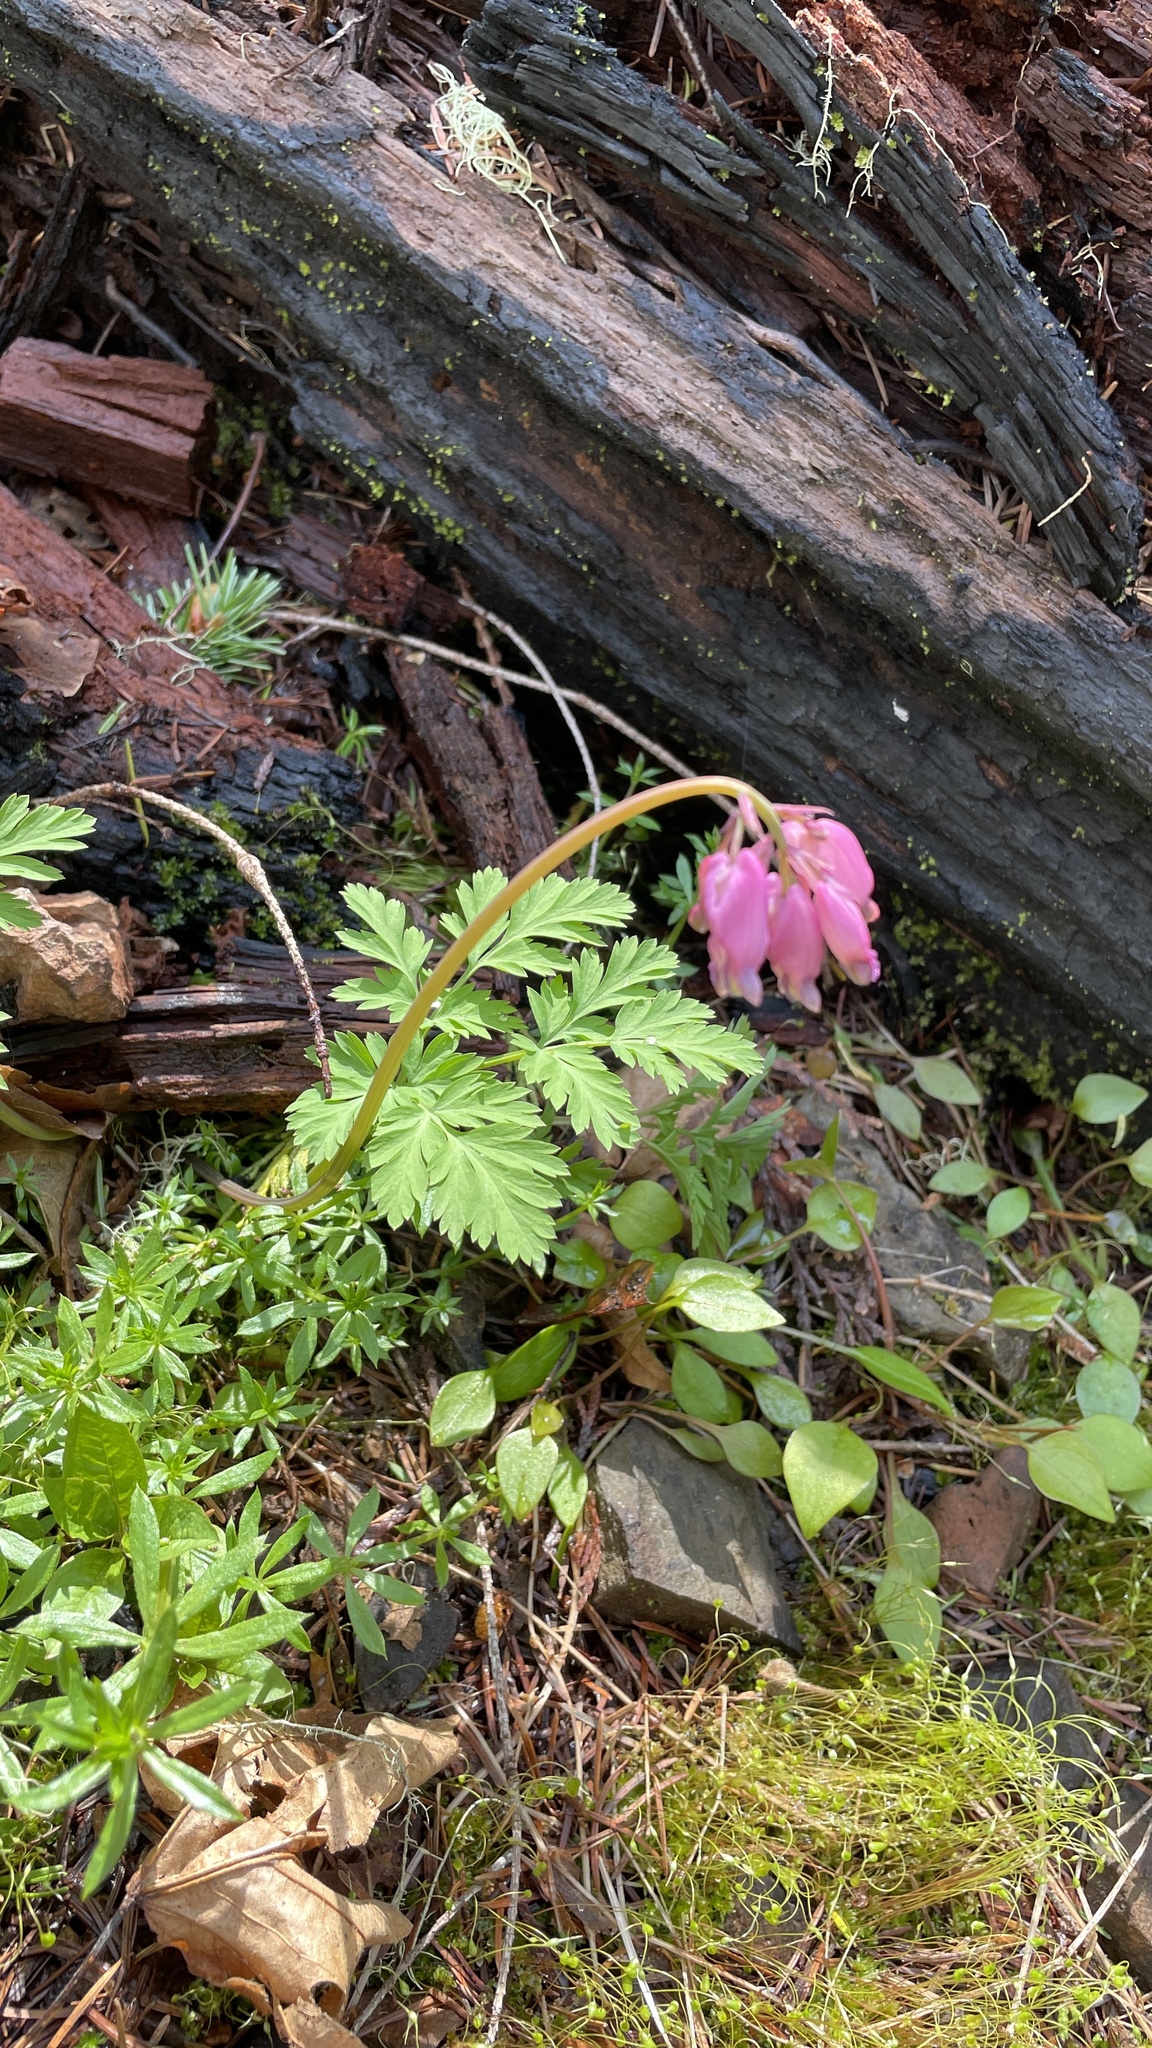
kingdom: Plantae
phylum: Tracheophyta
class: Magnoliopsida
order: Ranunculales
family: Papaveraceae
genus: Dicentra
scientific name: Dicentra formosa
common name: Bleeding-heart
